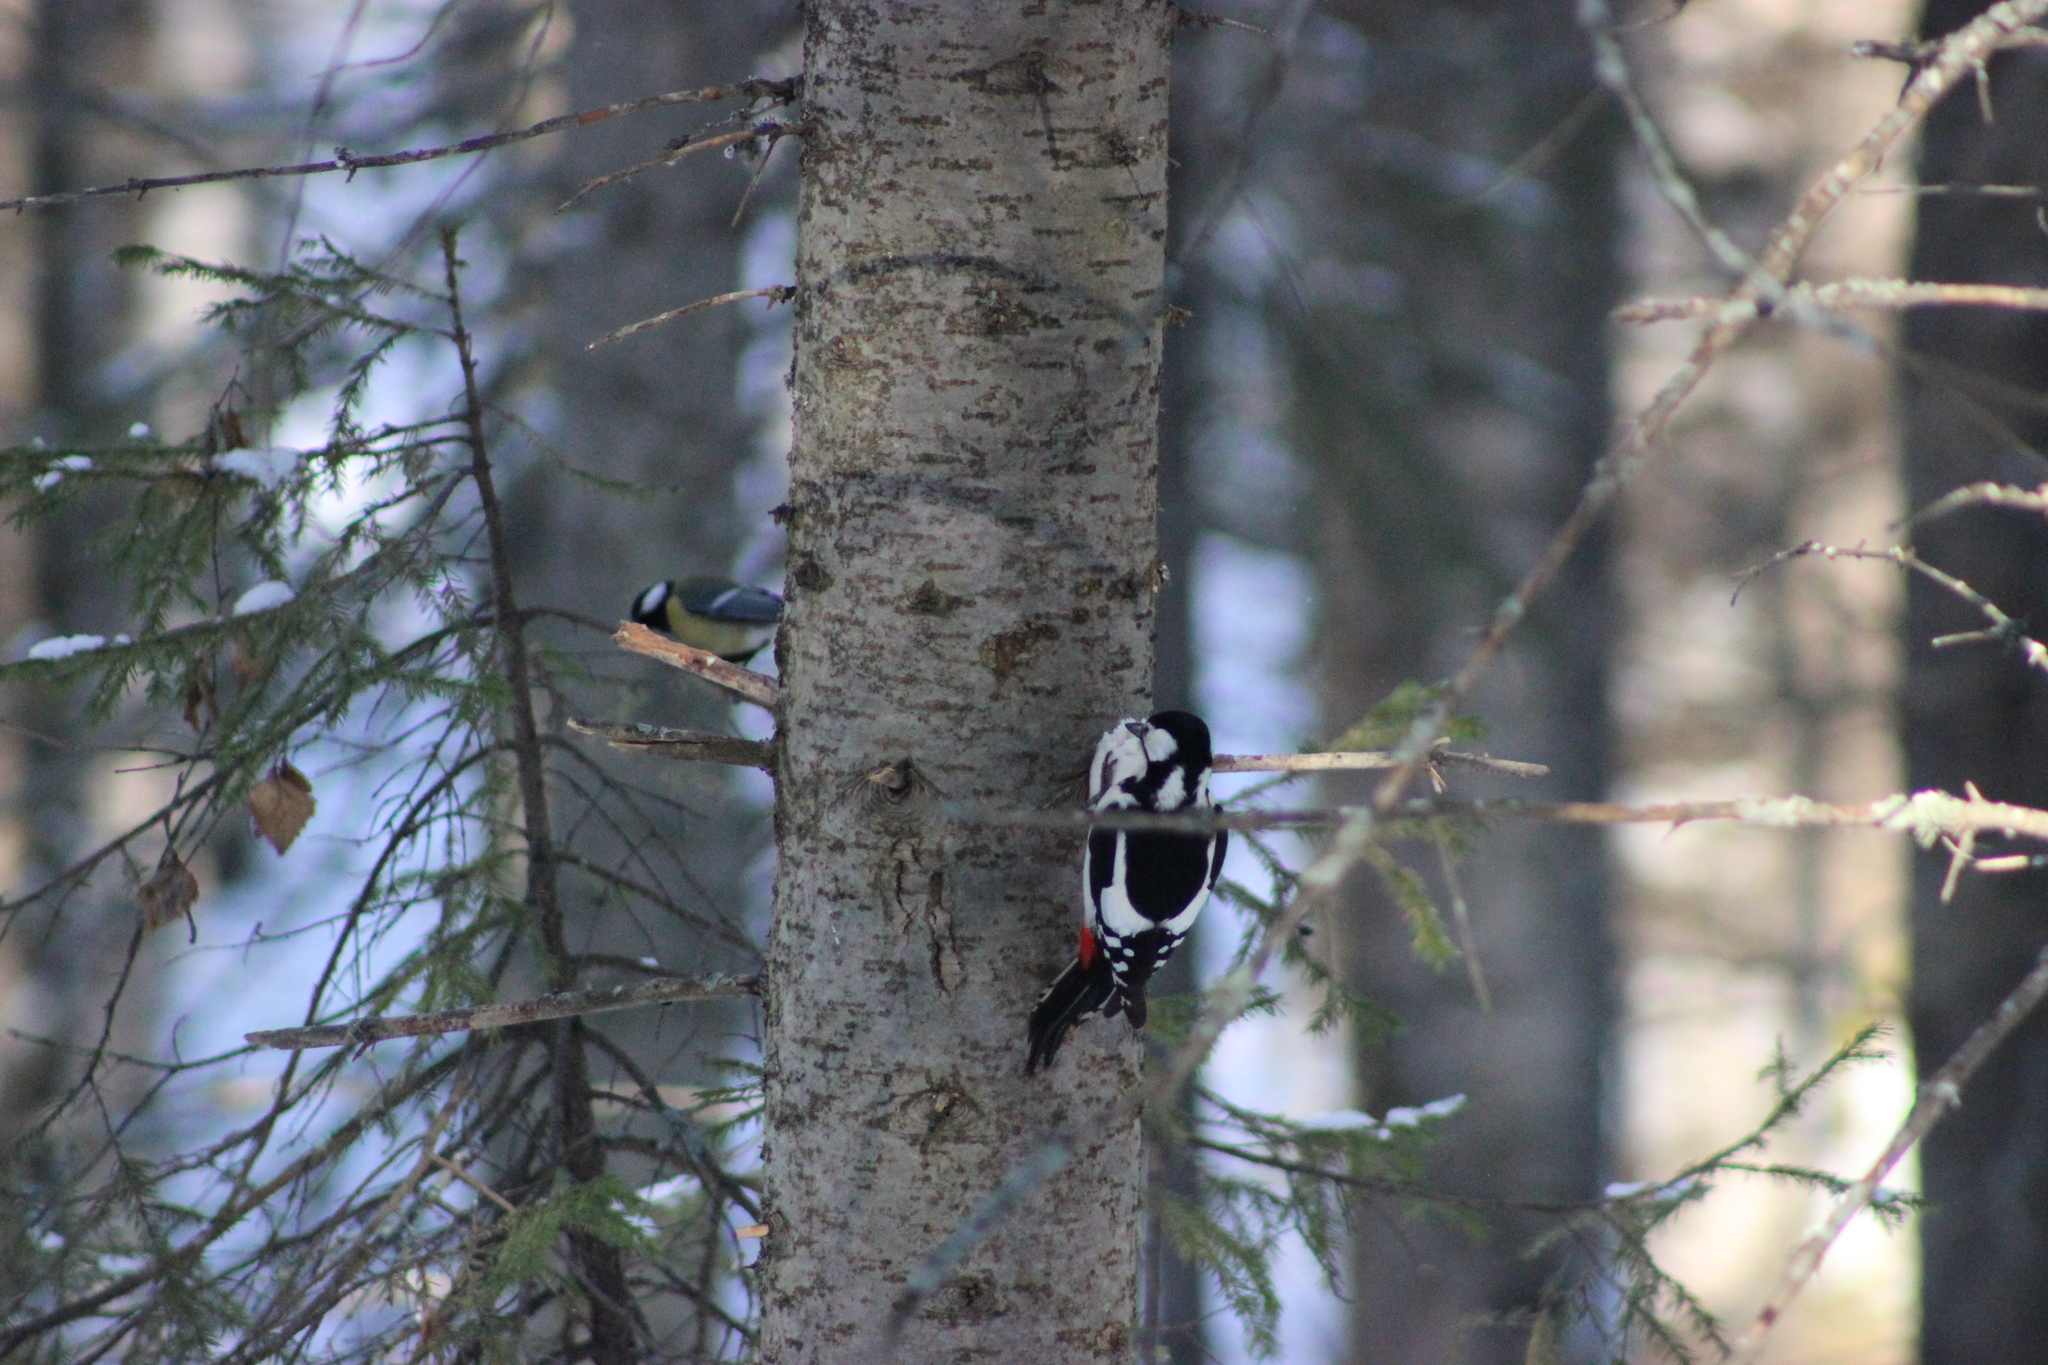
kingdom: Animalia
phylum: Chordata
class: Aves
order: Piciformes
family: Picidae
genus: Dendrocopos
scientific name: Dendrocopos major
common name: Great spotted woodpecker
